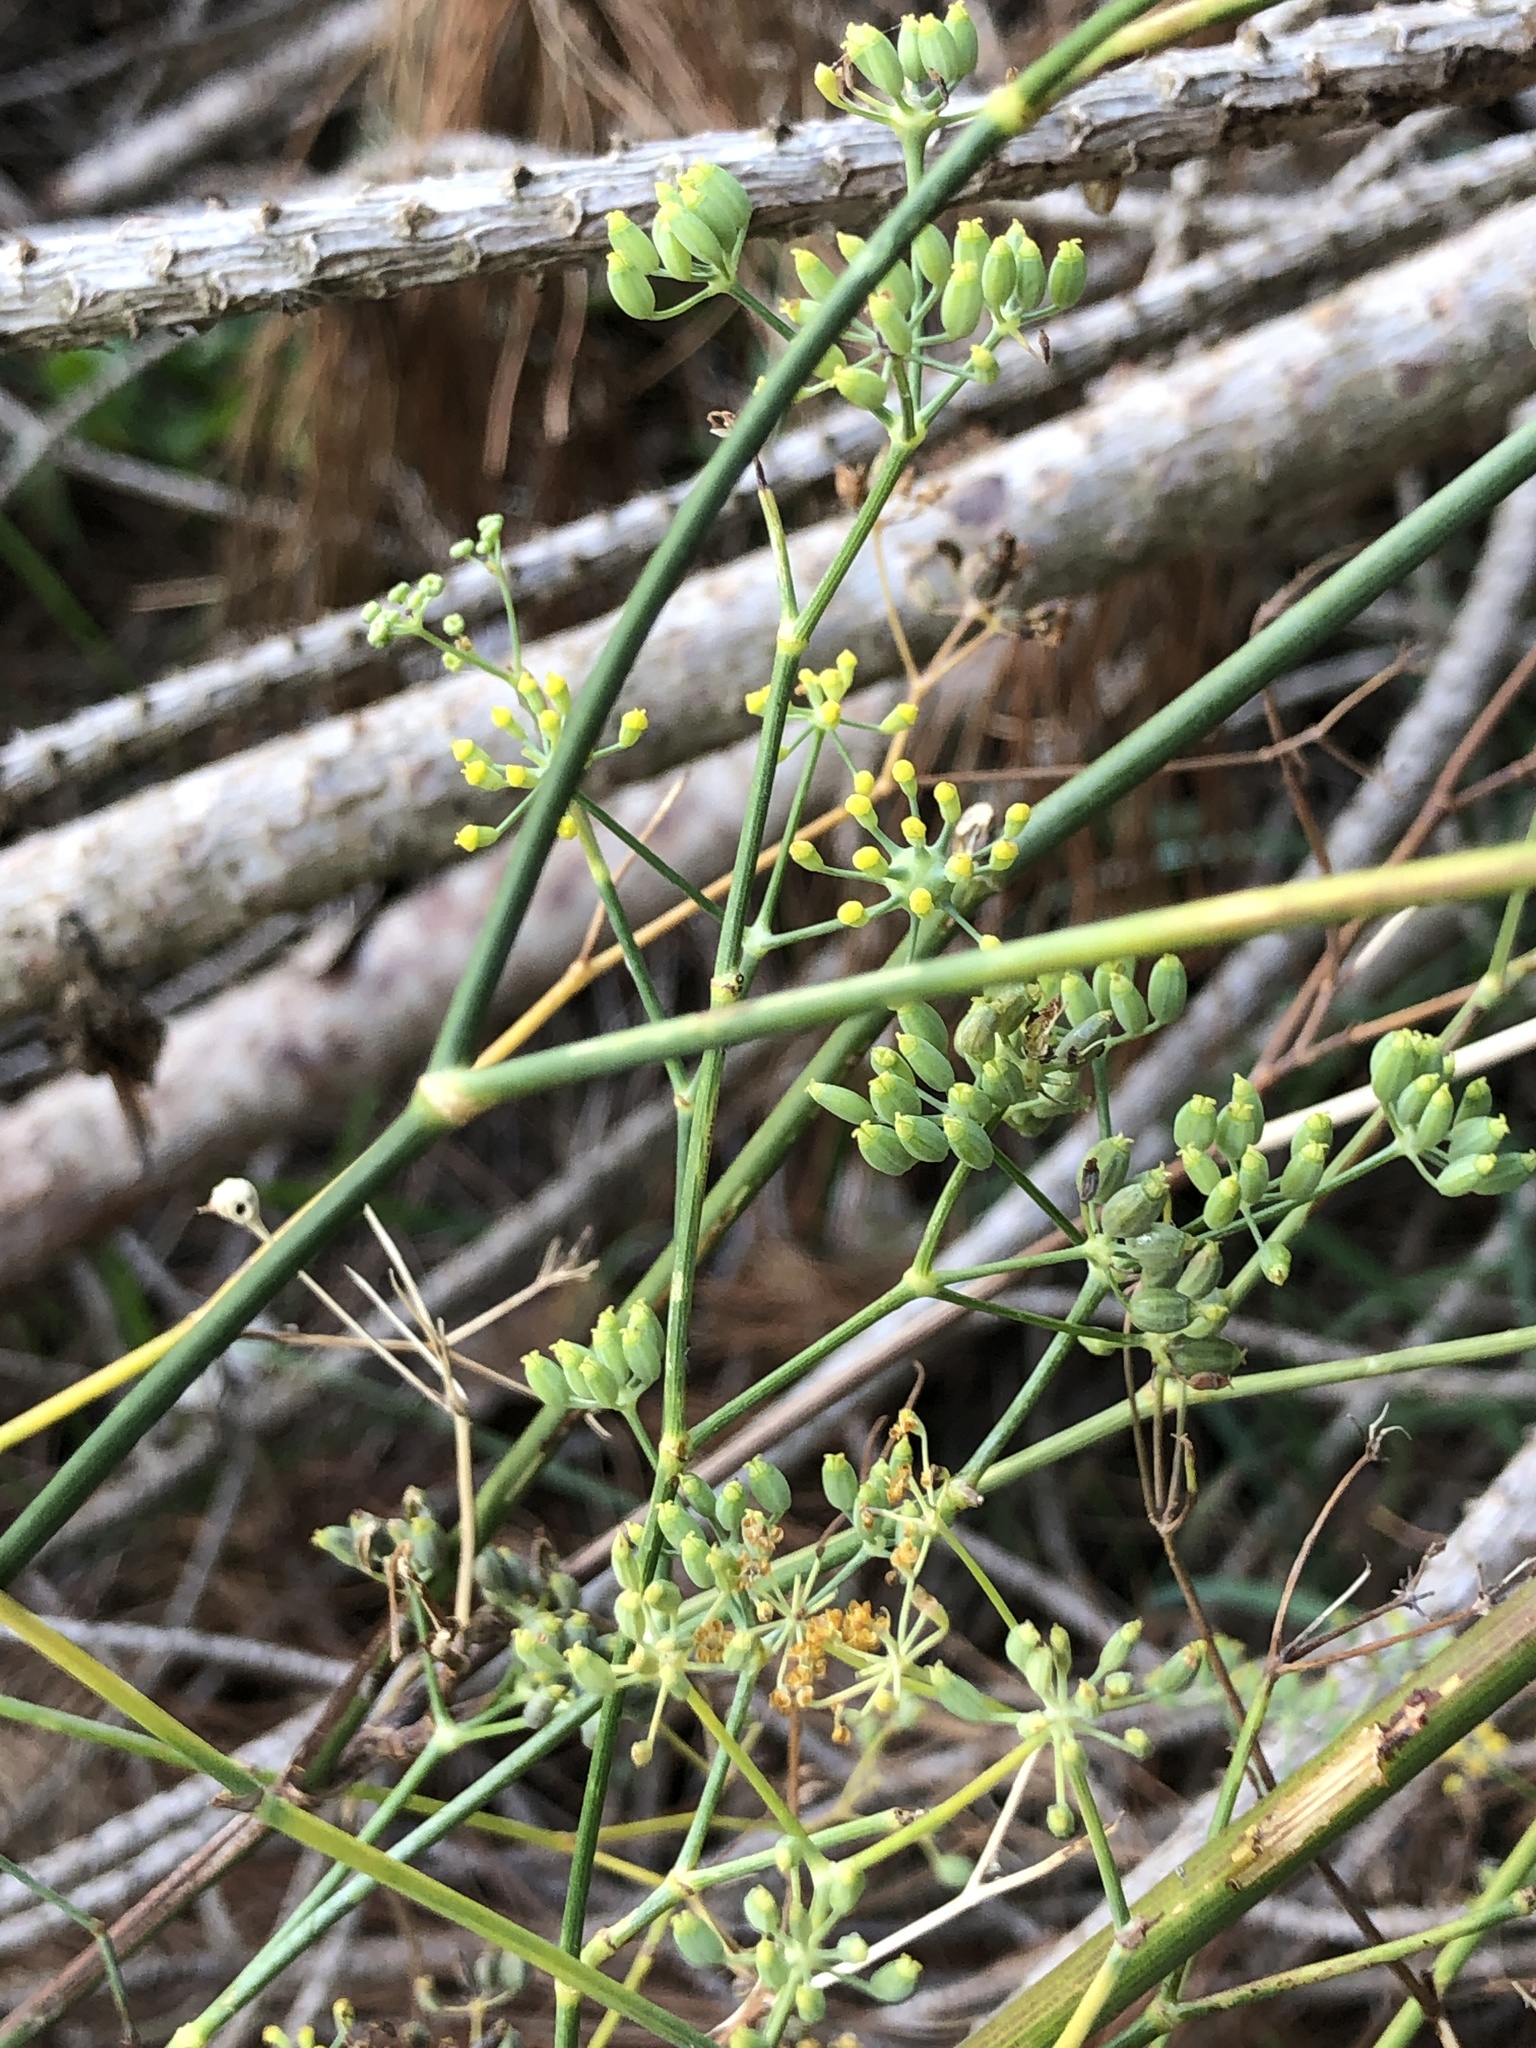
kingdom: Plantae
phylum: Tracheophyta
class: Magnoliopsida
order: Apiales
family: Apiaceae
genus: Foeniculum
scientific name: Foeniculum vulgare
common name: Fennel
